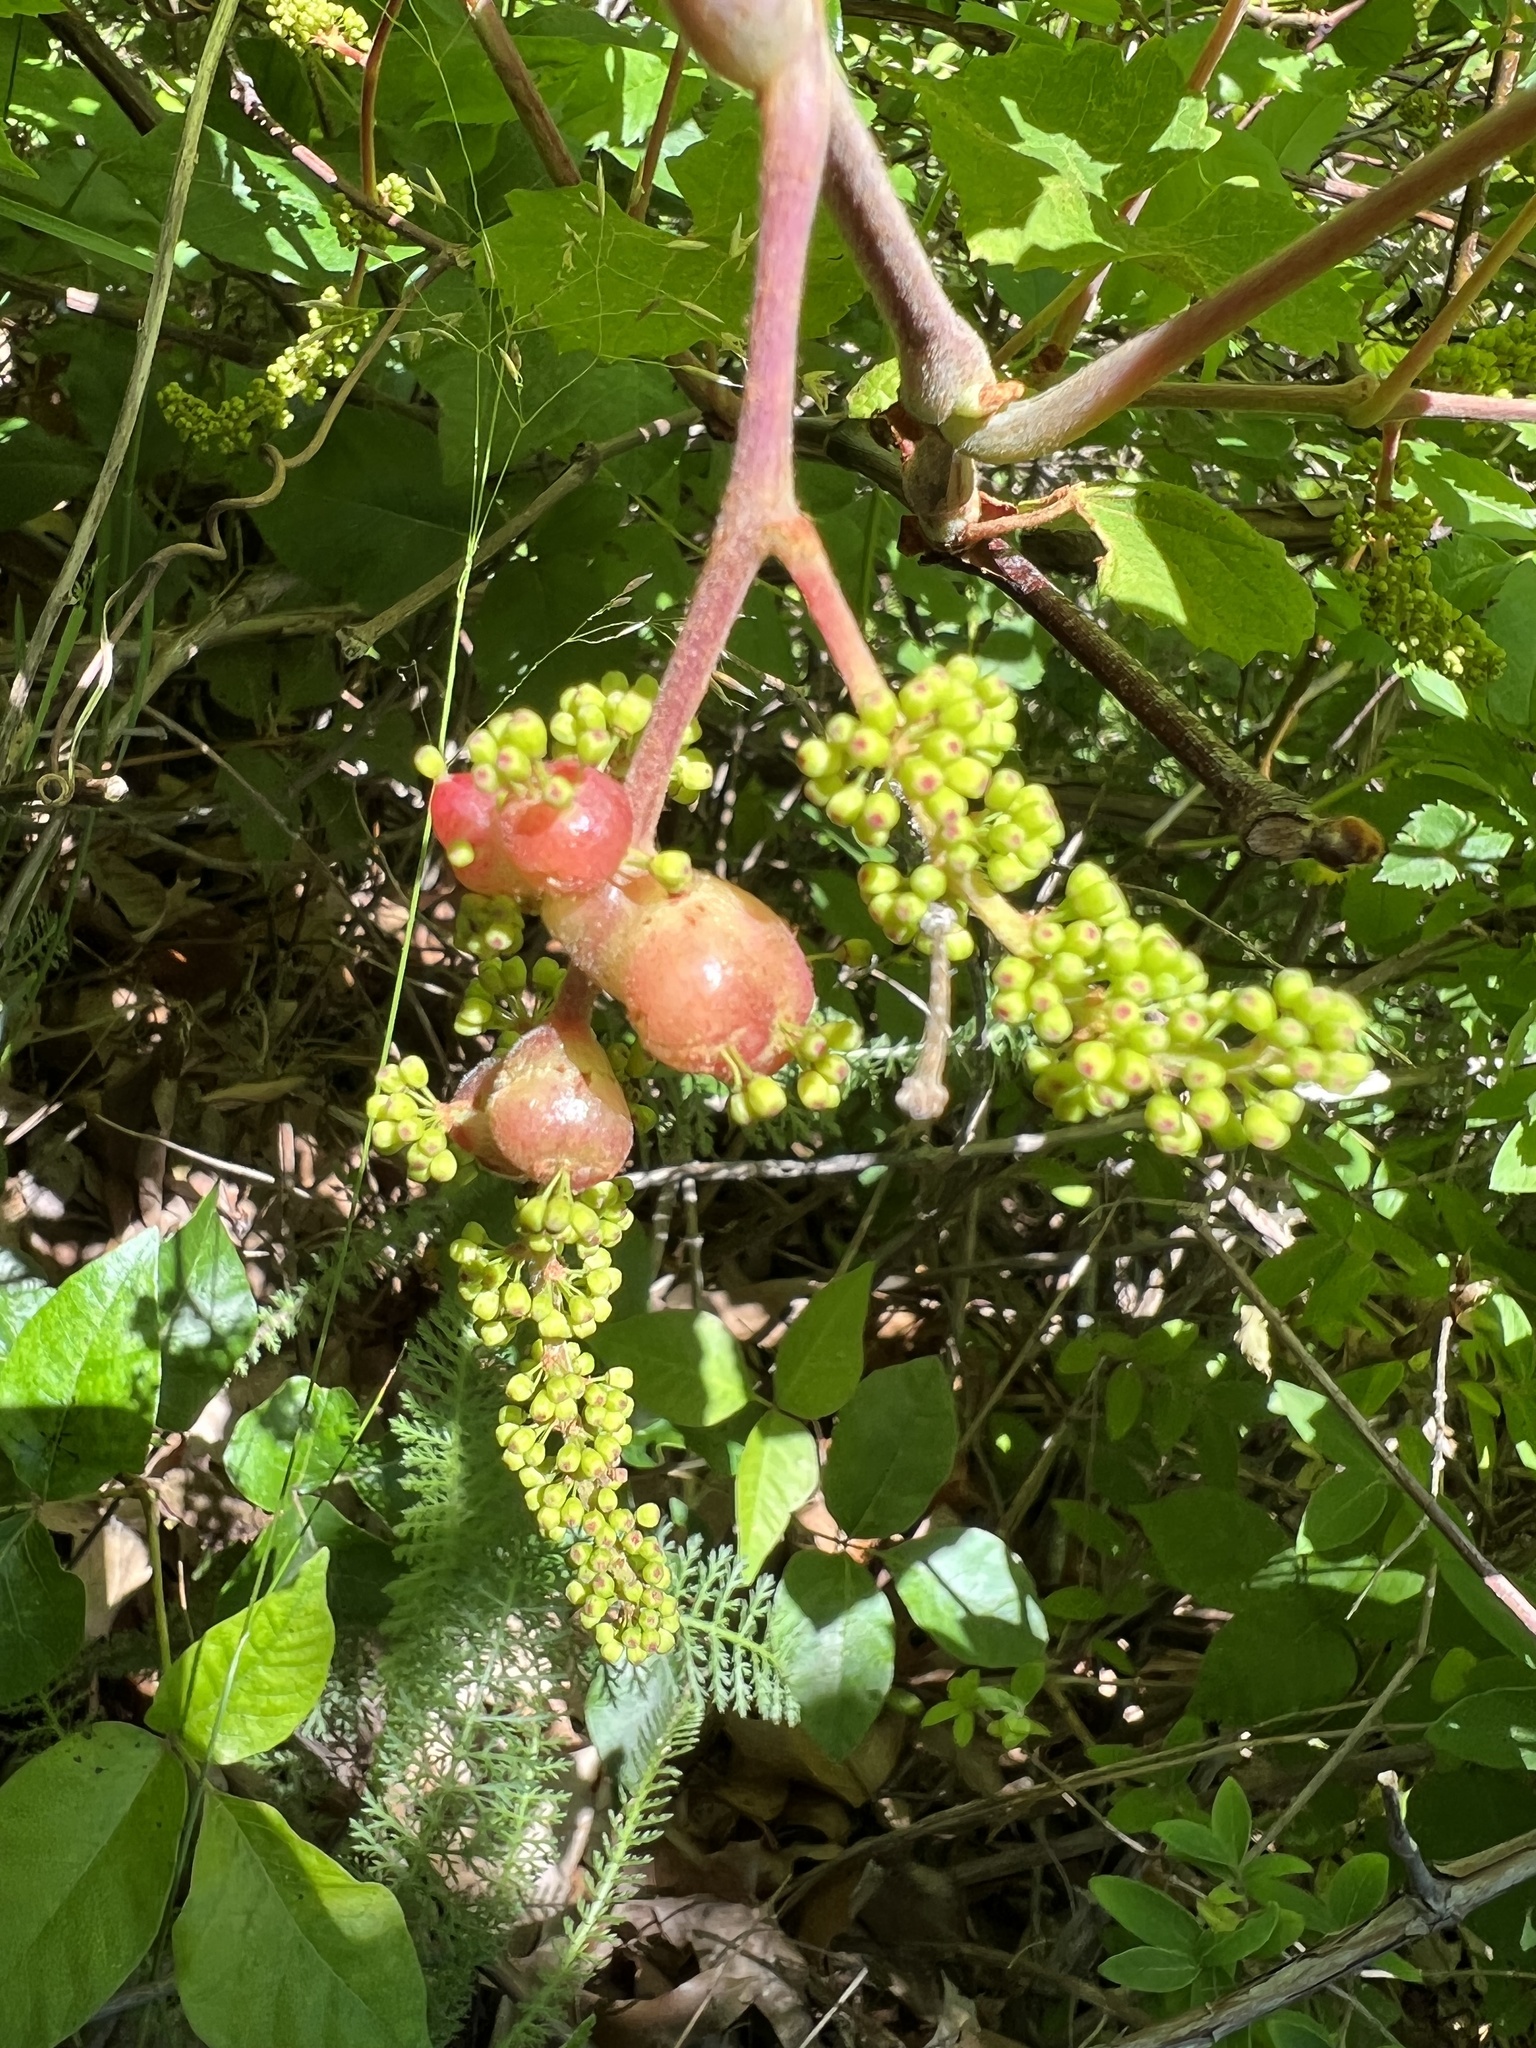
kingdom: Animalia
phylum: Arthropoda
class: Insecta
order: Diptera
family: Cecidomyiidae
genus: Vitisiella
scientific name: Vitisiella brevicauda
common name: Grape tumid gallmaker midge
